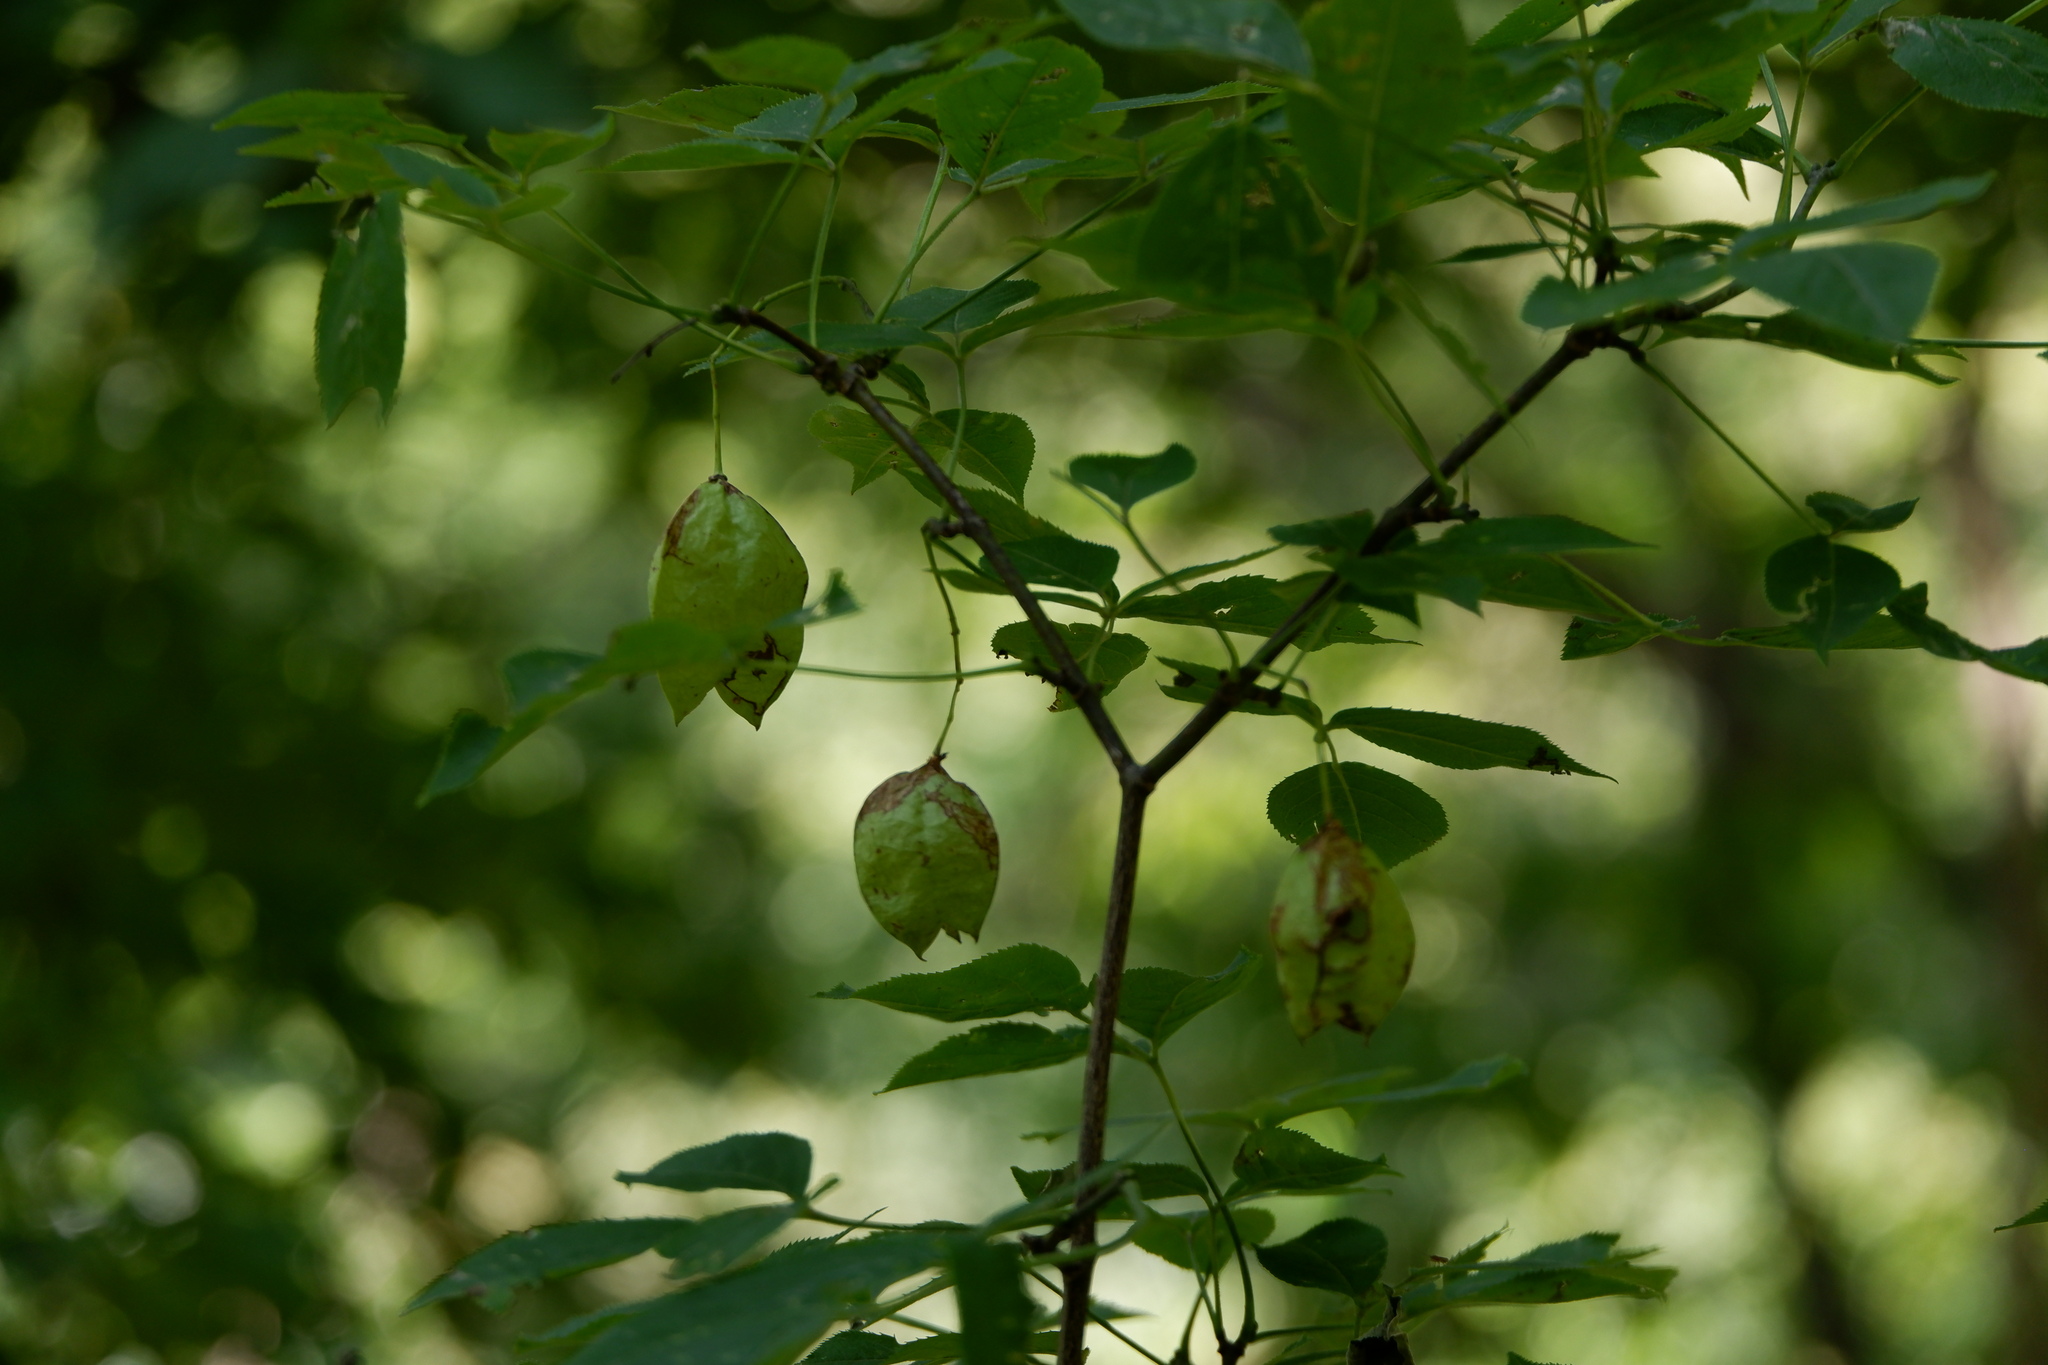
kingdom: Plantae
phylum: Tracheophyta
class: Magnoliopsida
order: Crossosomatales
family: Staphyleaceae
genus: Staphylea
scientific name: Staphylea trifolia
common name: American bladdernut
